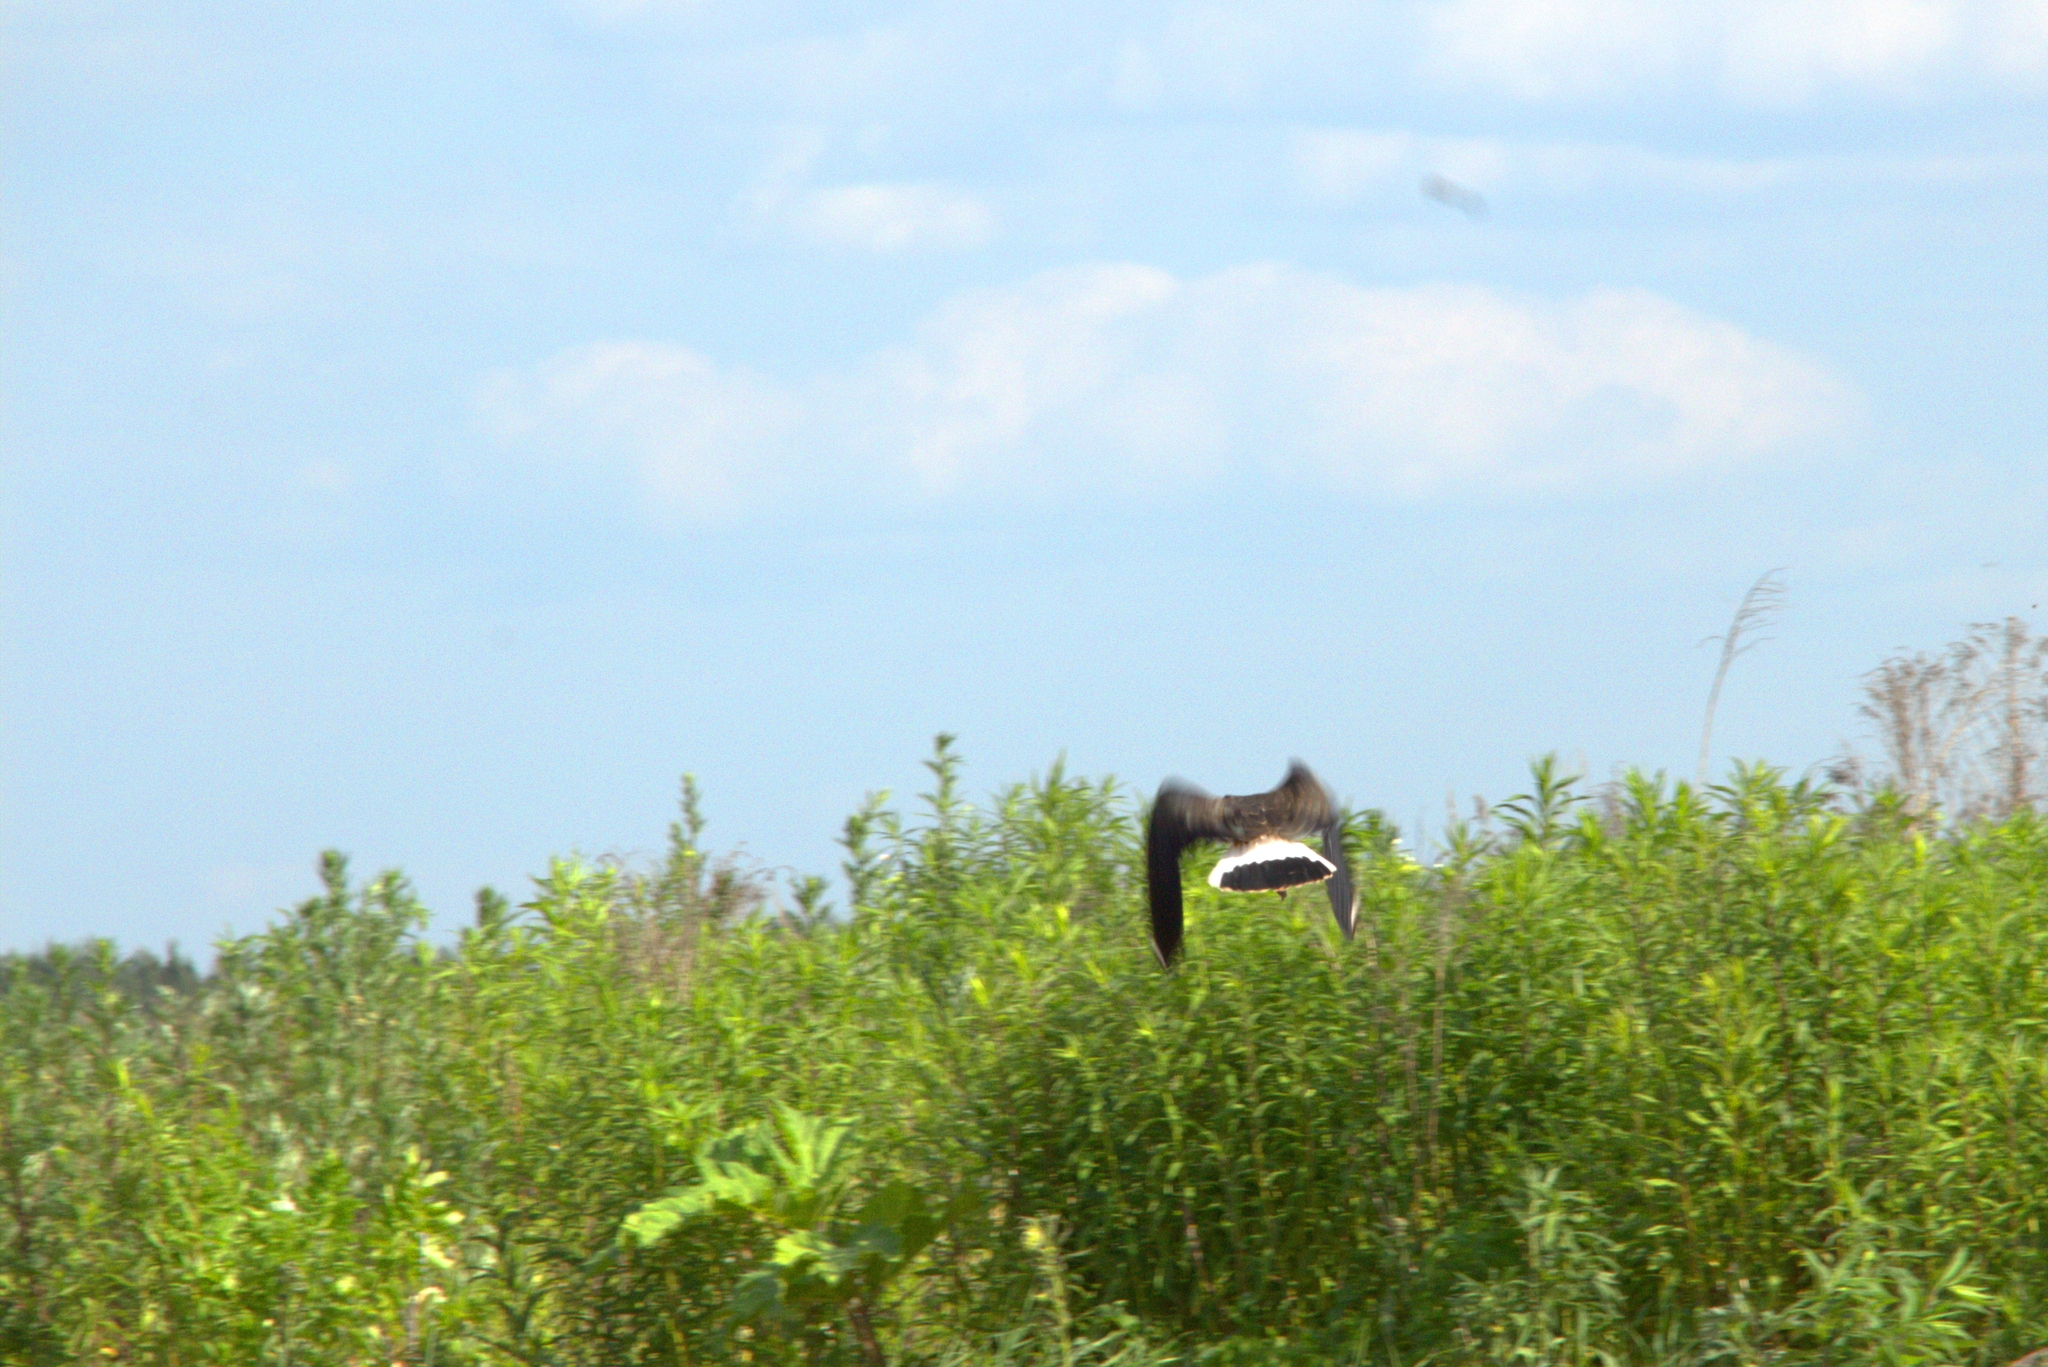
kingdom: Animalia
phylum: Chordata
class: Aves
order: Charadriiformes
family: Charadriidae
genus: Vanellus
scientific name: Vanellus vanellus
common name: Northern lapwing
